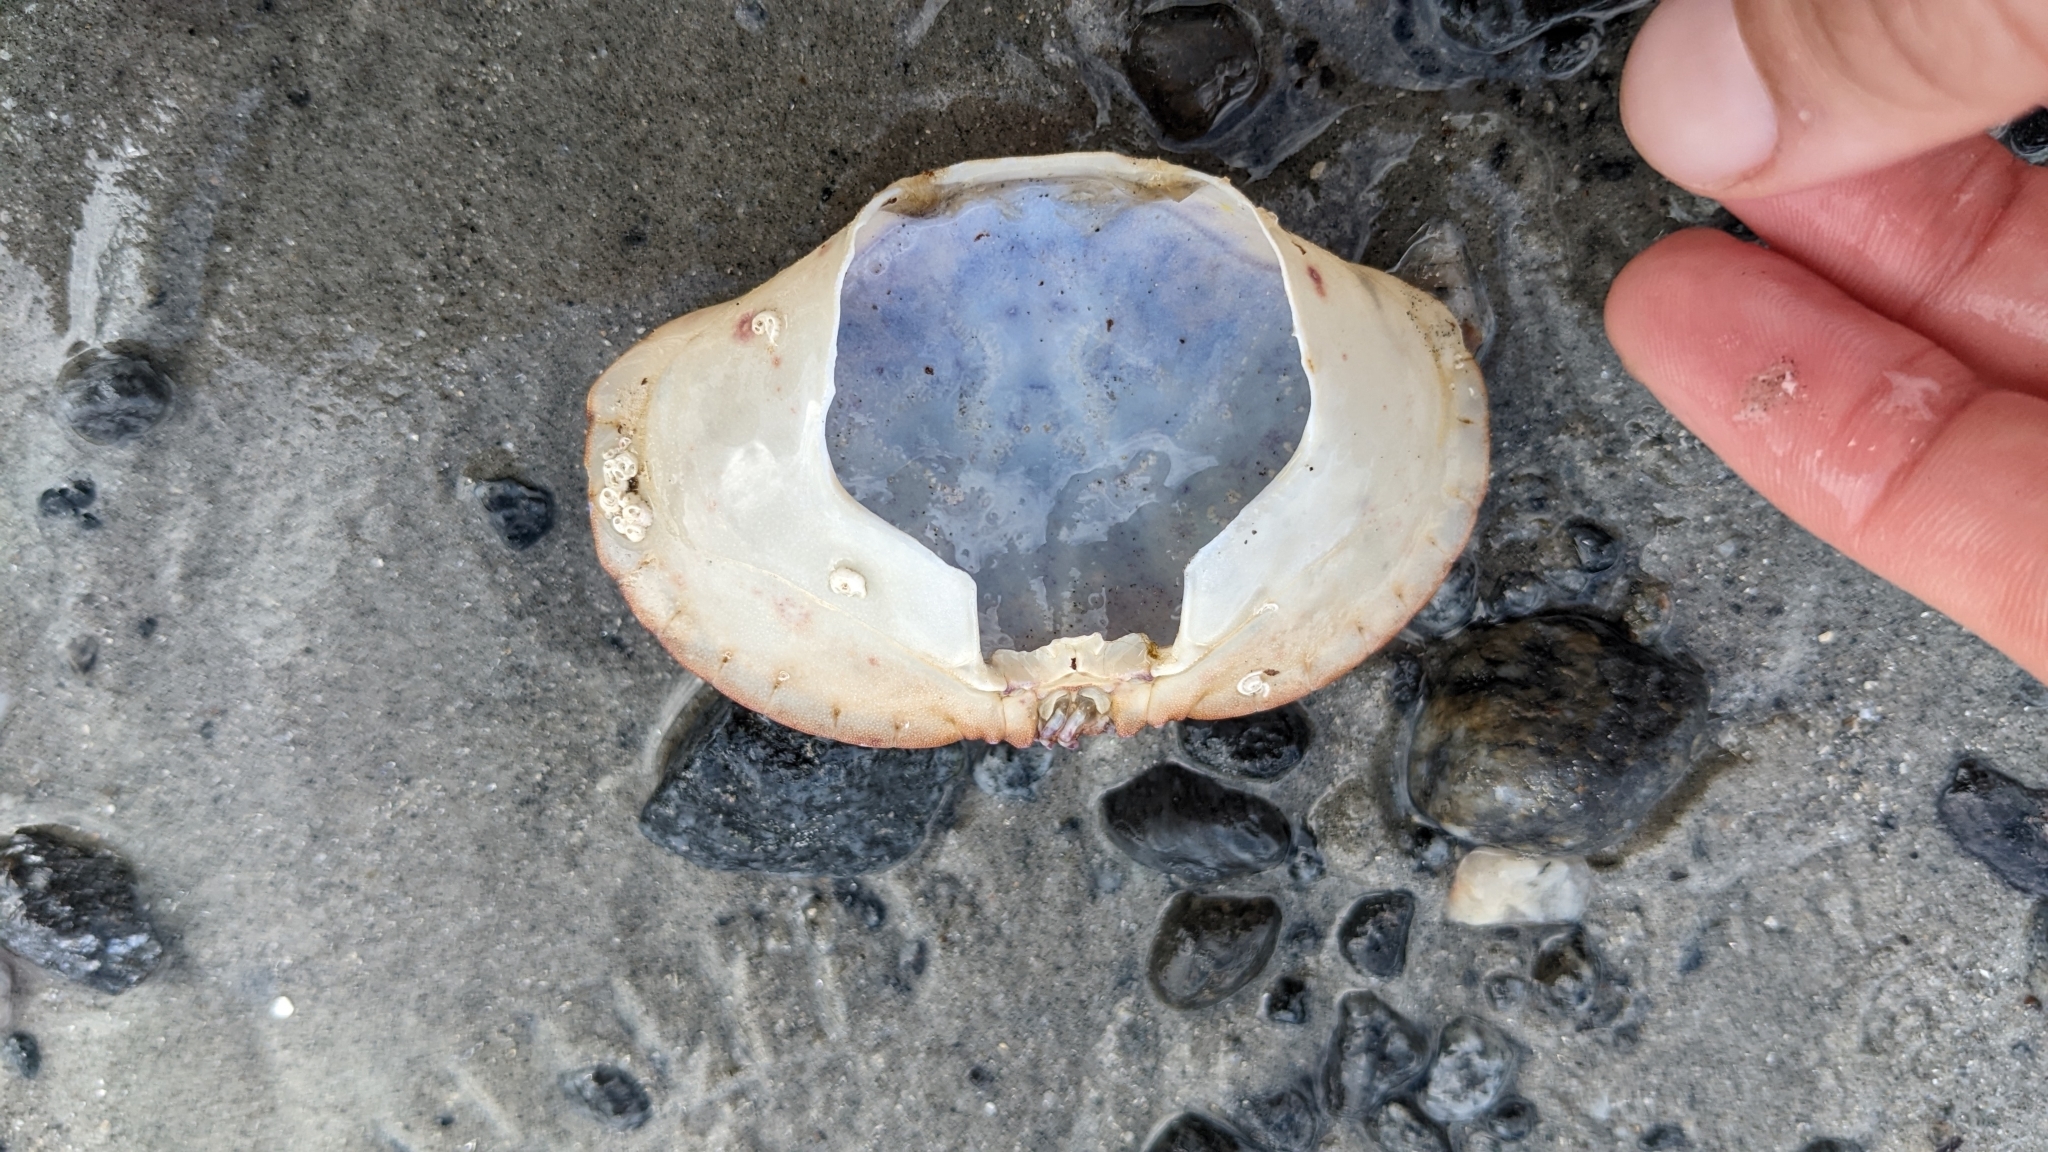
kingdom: Animalia
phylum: Arthropoda
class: Malacostraca
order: Decapoda
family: Cancridae
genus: Cancer
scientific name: Cancer pagurus
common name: Edible crab
